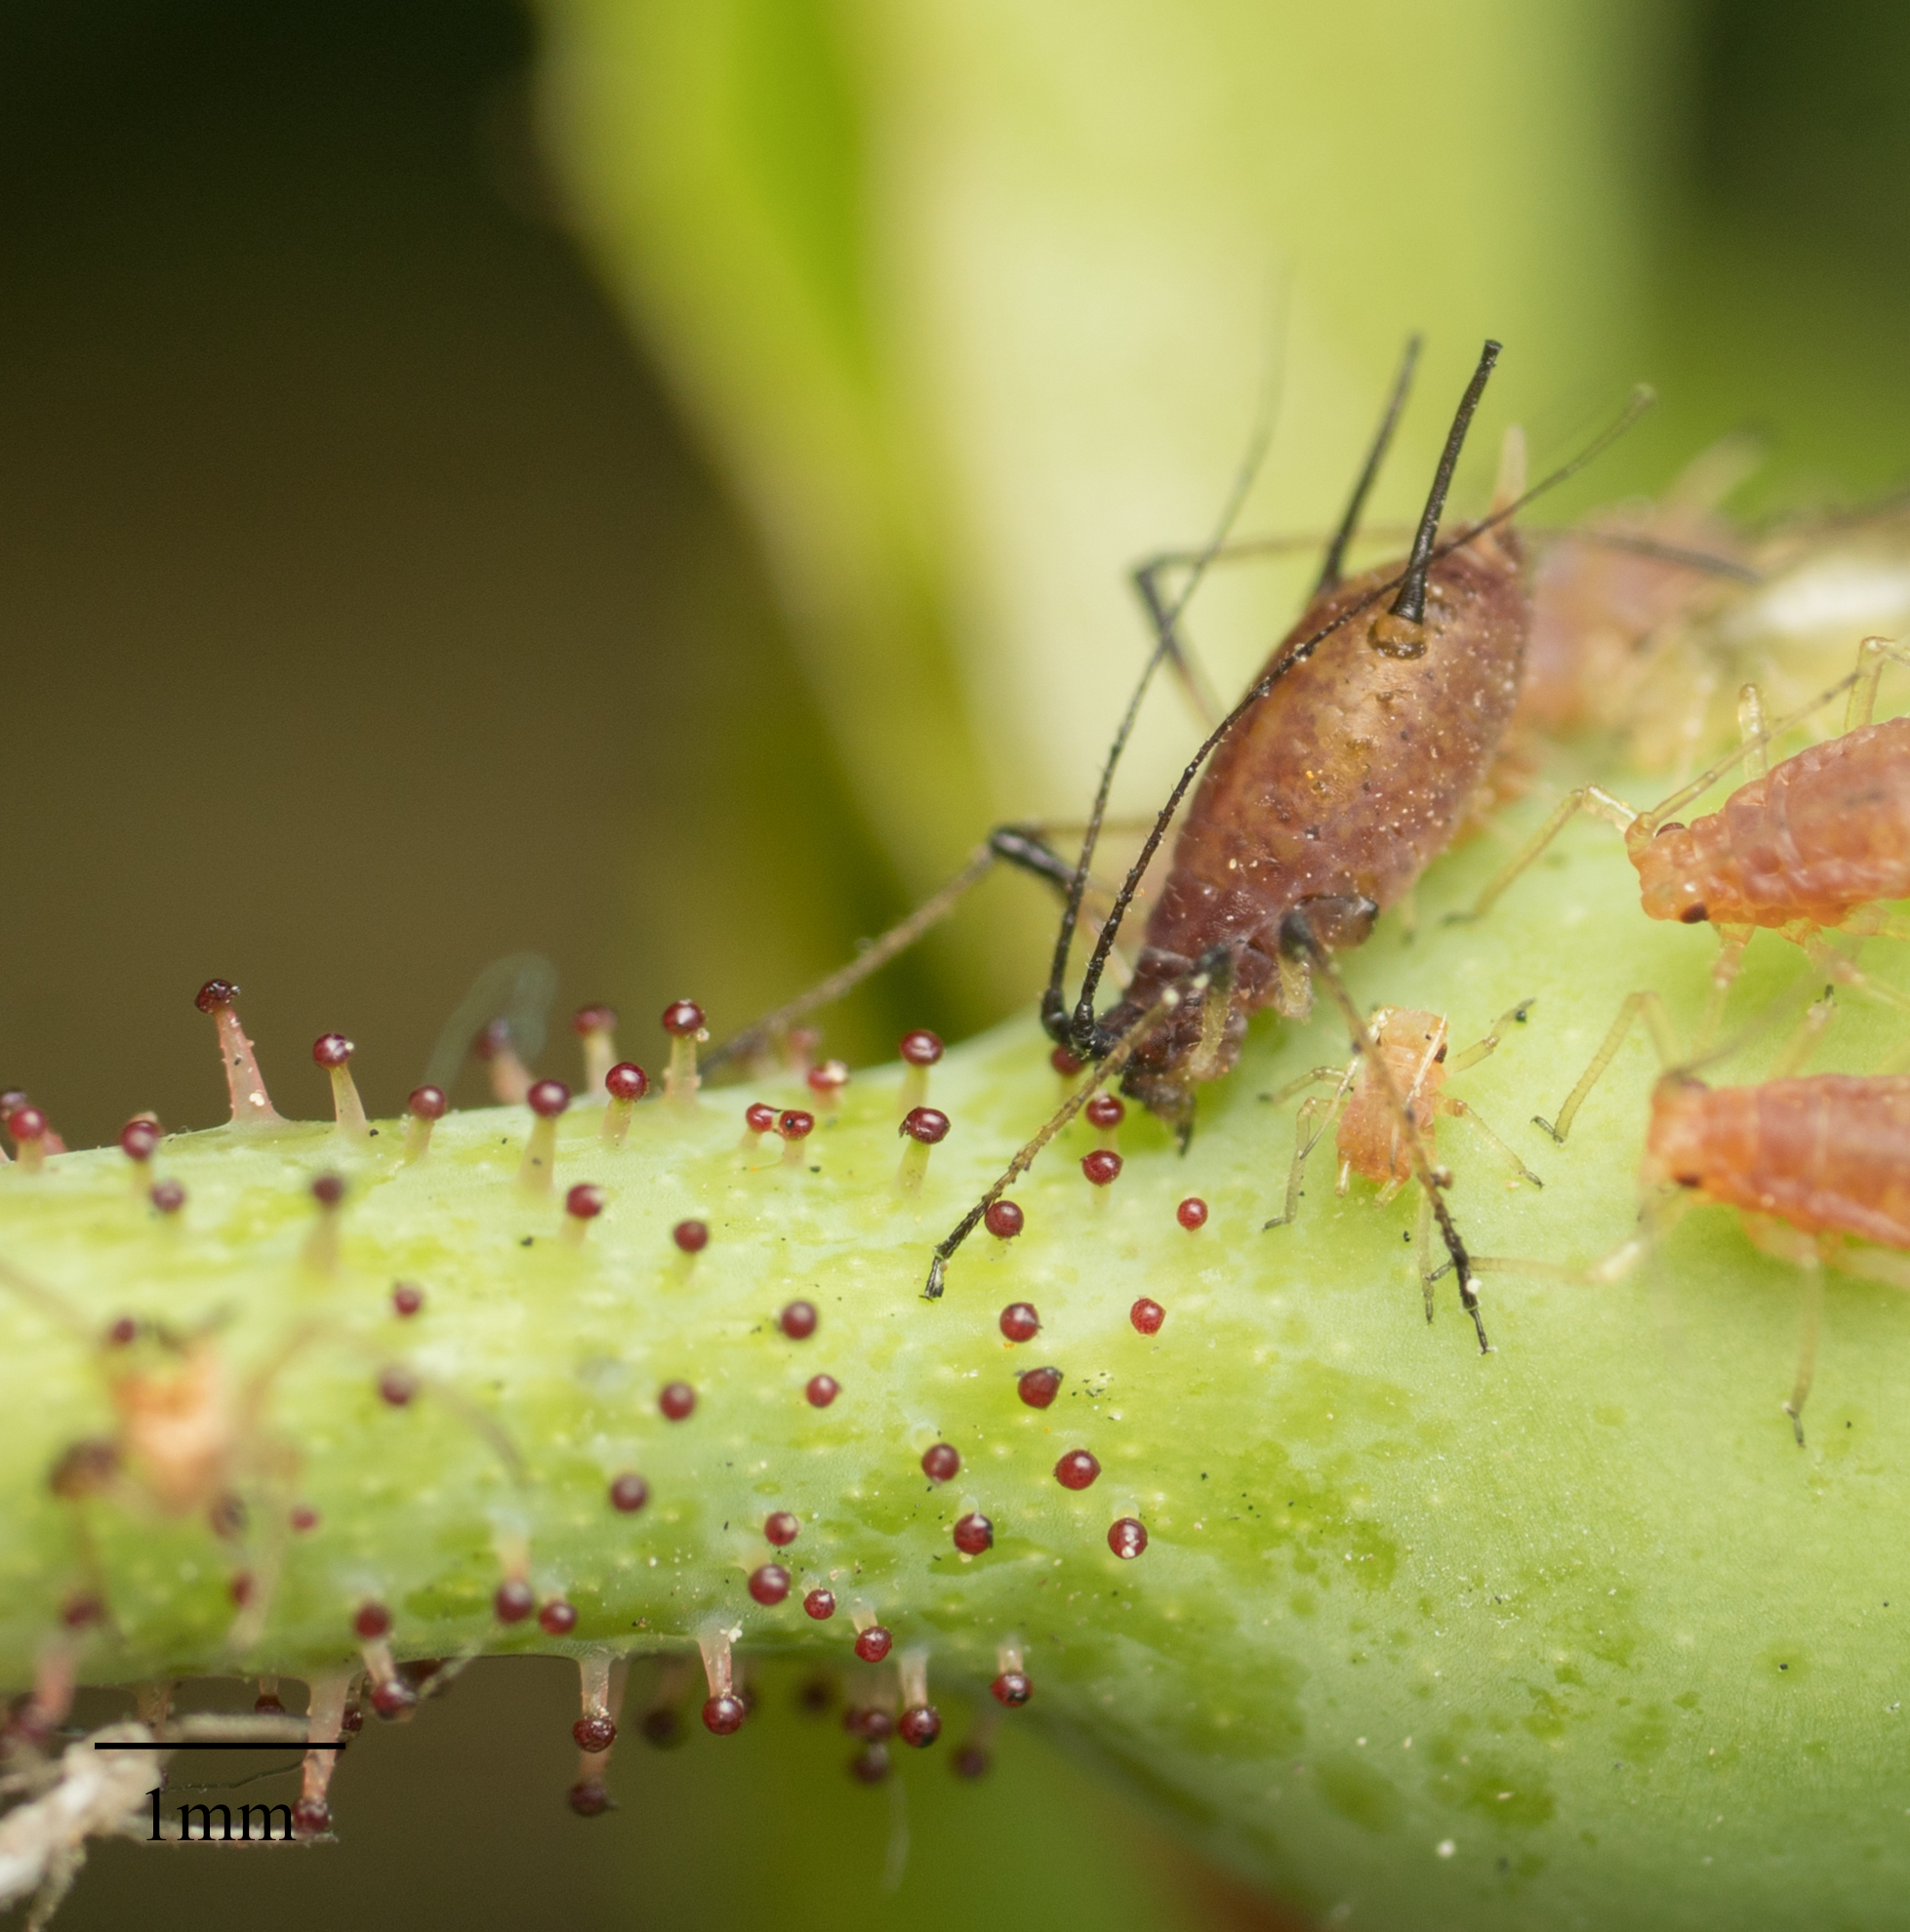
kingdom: Animalia
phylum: Arthropoda
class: Insecta
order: Hemiptera
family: Aphididae
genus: Macrosiphum
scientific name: Macrosiphum rosae
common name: Rose aphid
